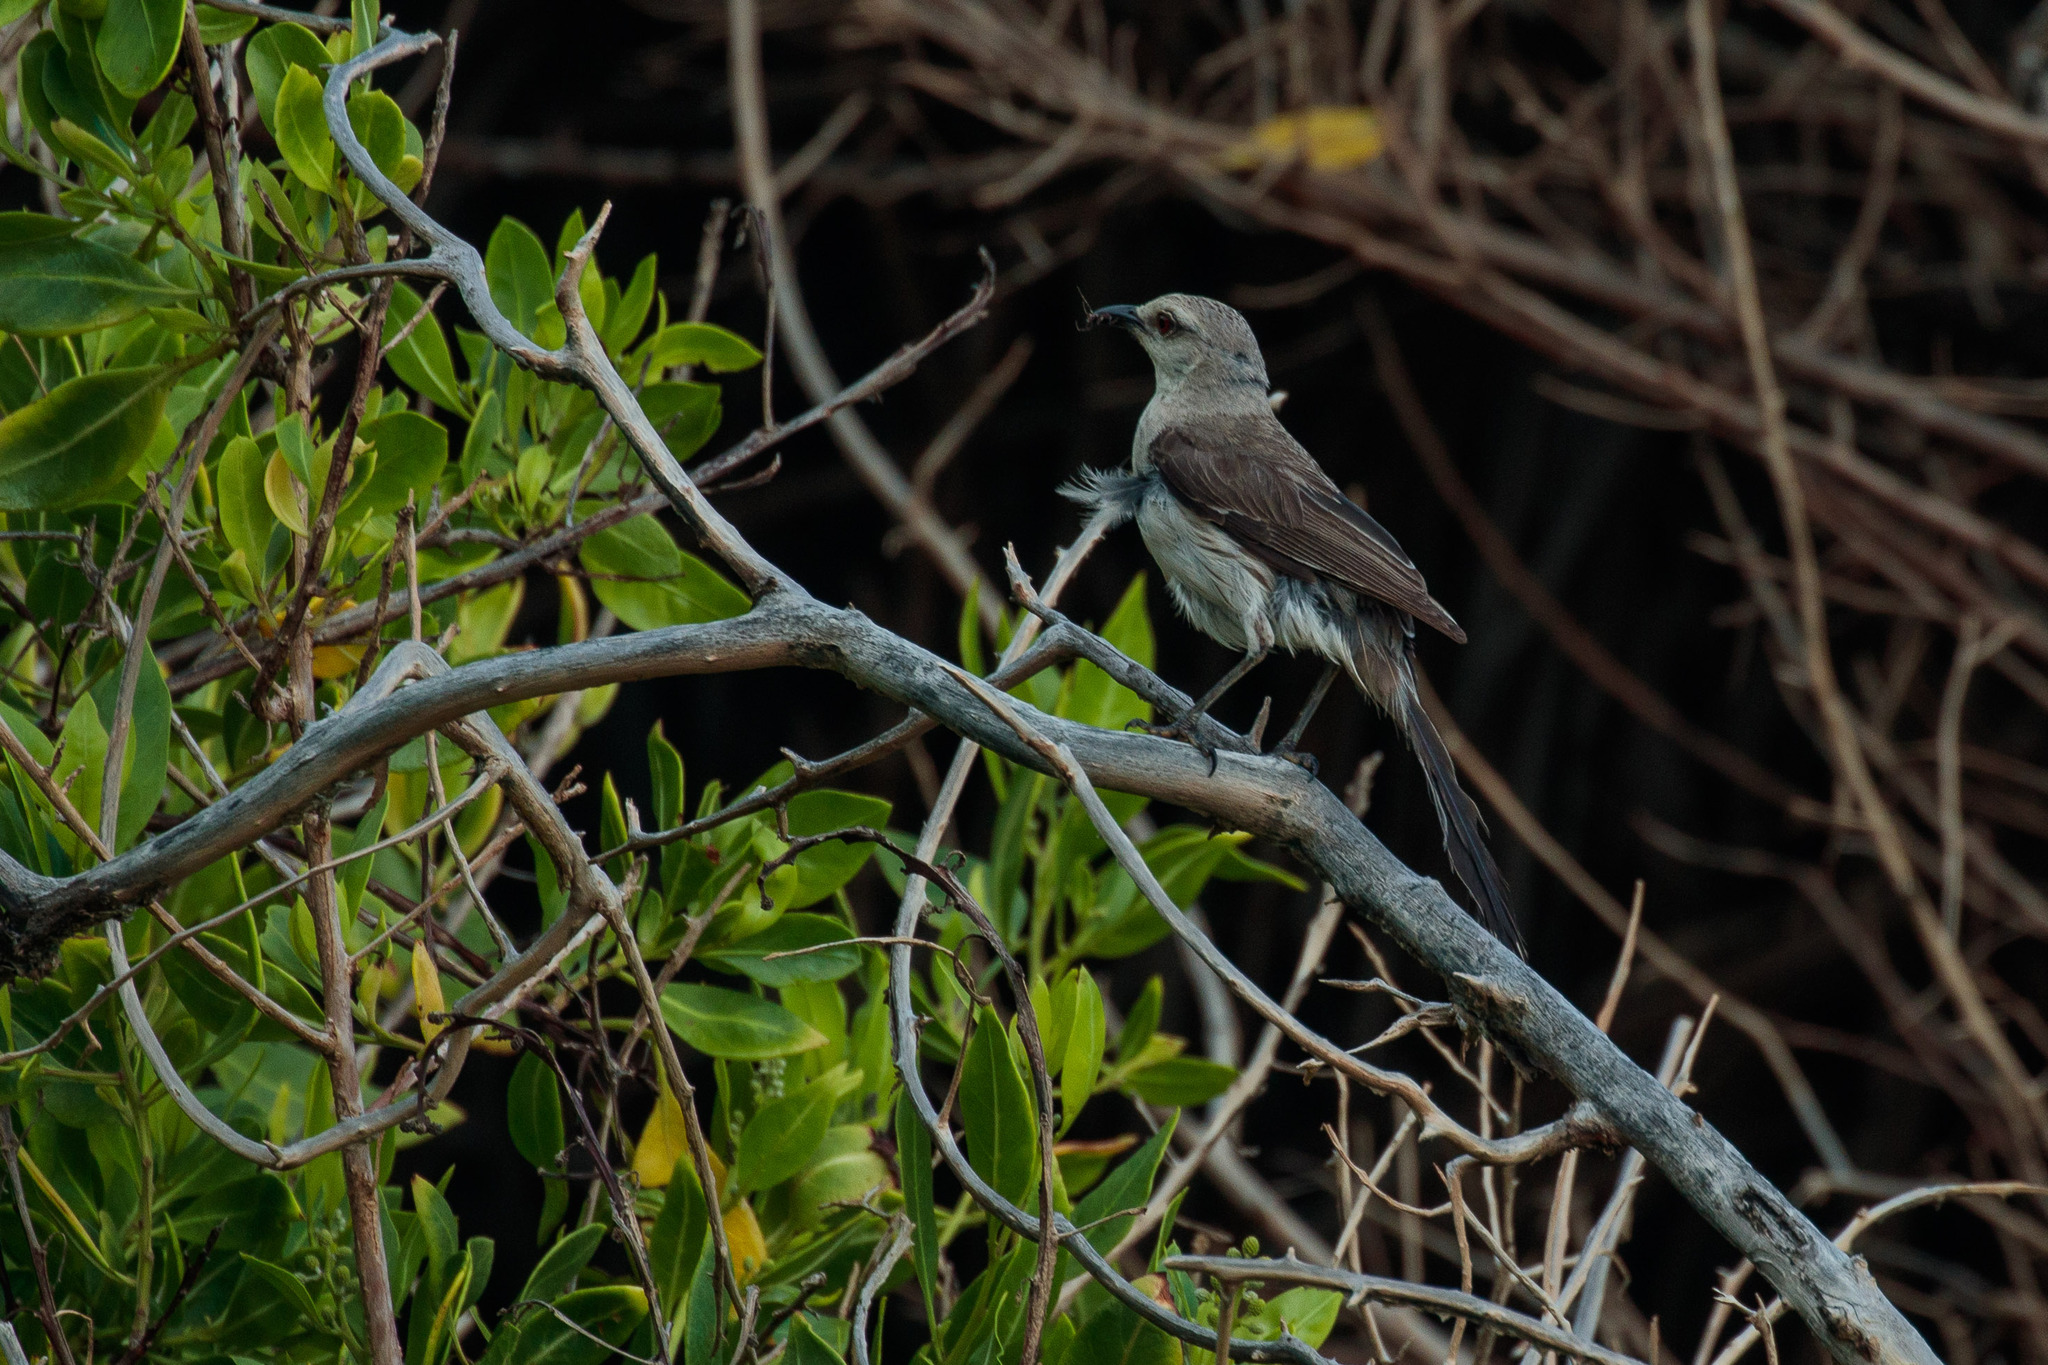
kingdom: Animalia
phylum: Chordata
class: Aves
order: Passeriformes
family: Mimidae
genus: Mimus
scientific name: Mimus gilvus
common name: Tropical mockingbird
